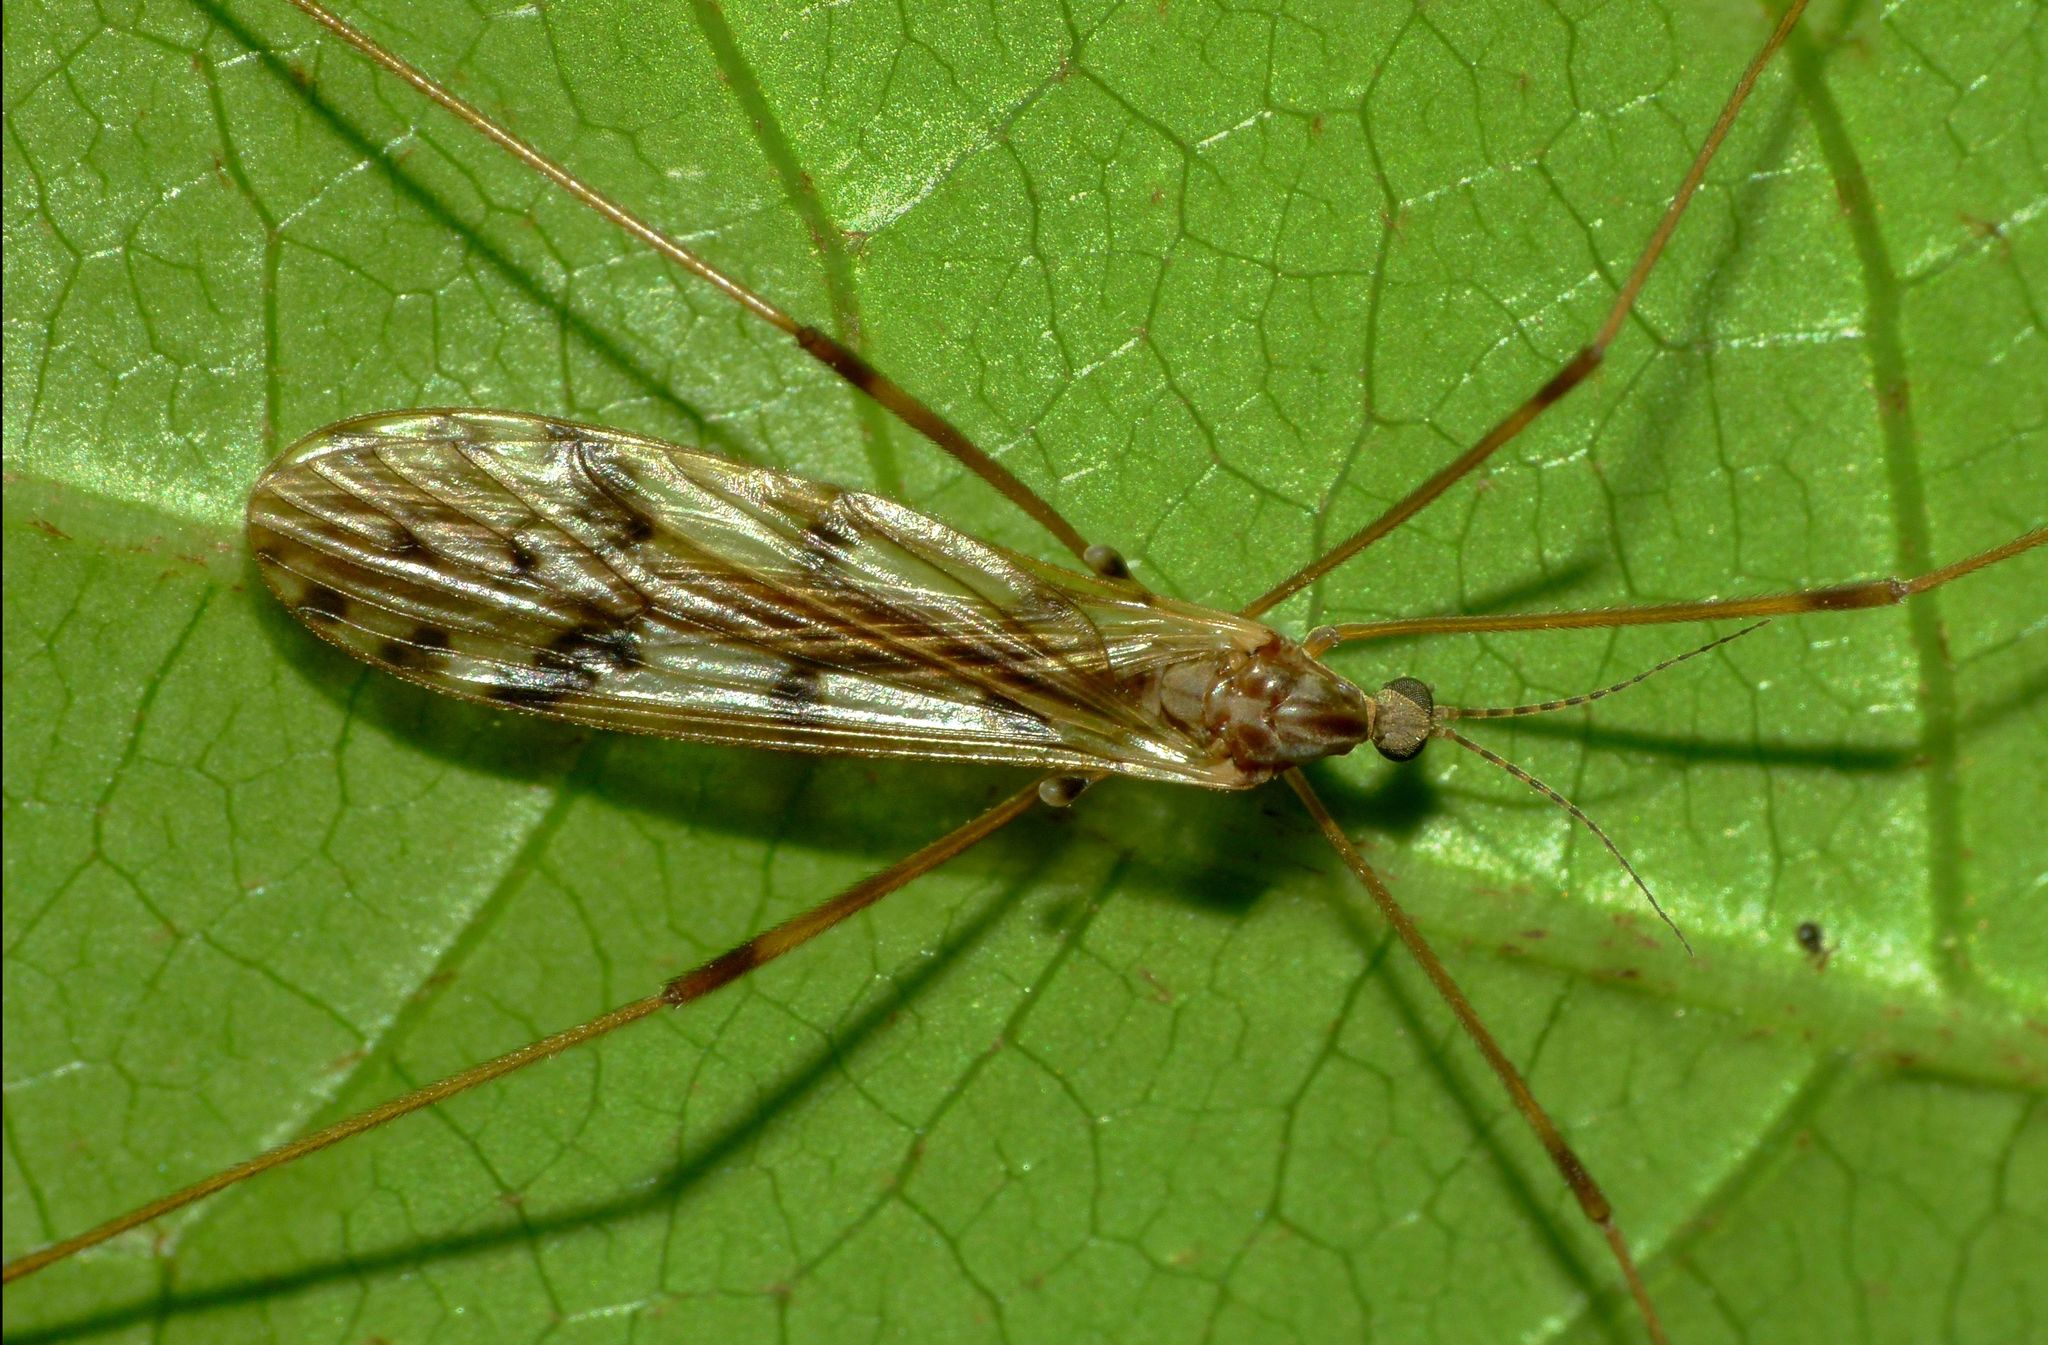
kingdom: Animalia
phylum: Arthropoda
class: Insecta
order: Diptera
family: Limoniidae
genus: Austrolimnophila
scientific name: Austrolimnophila atripes
